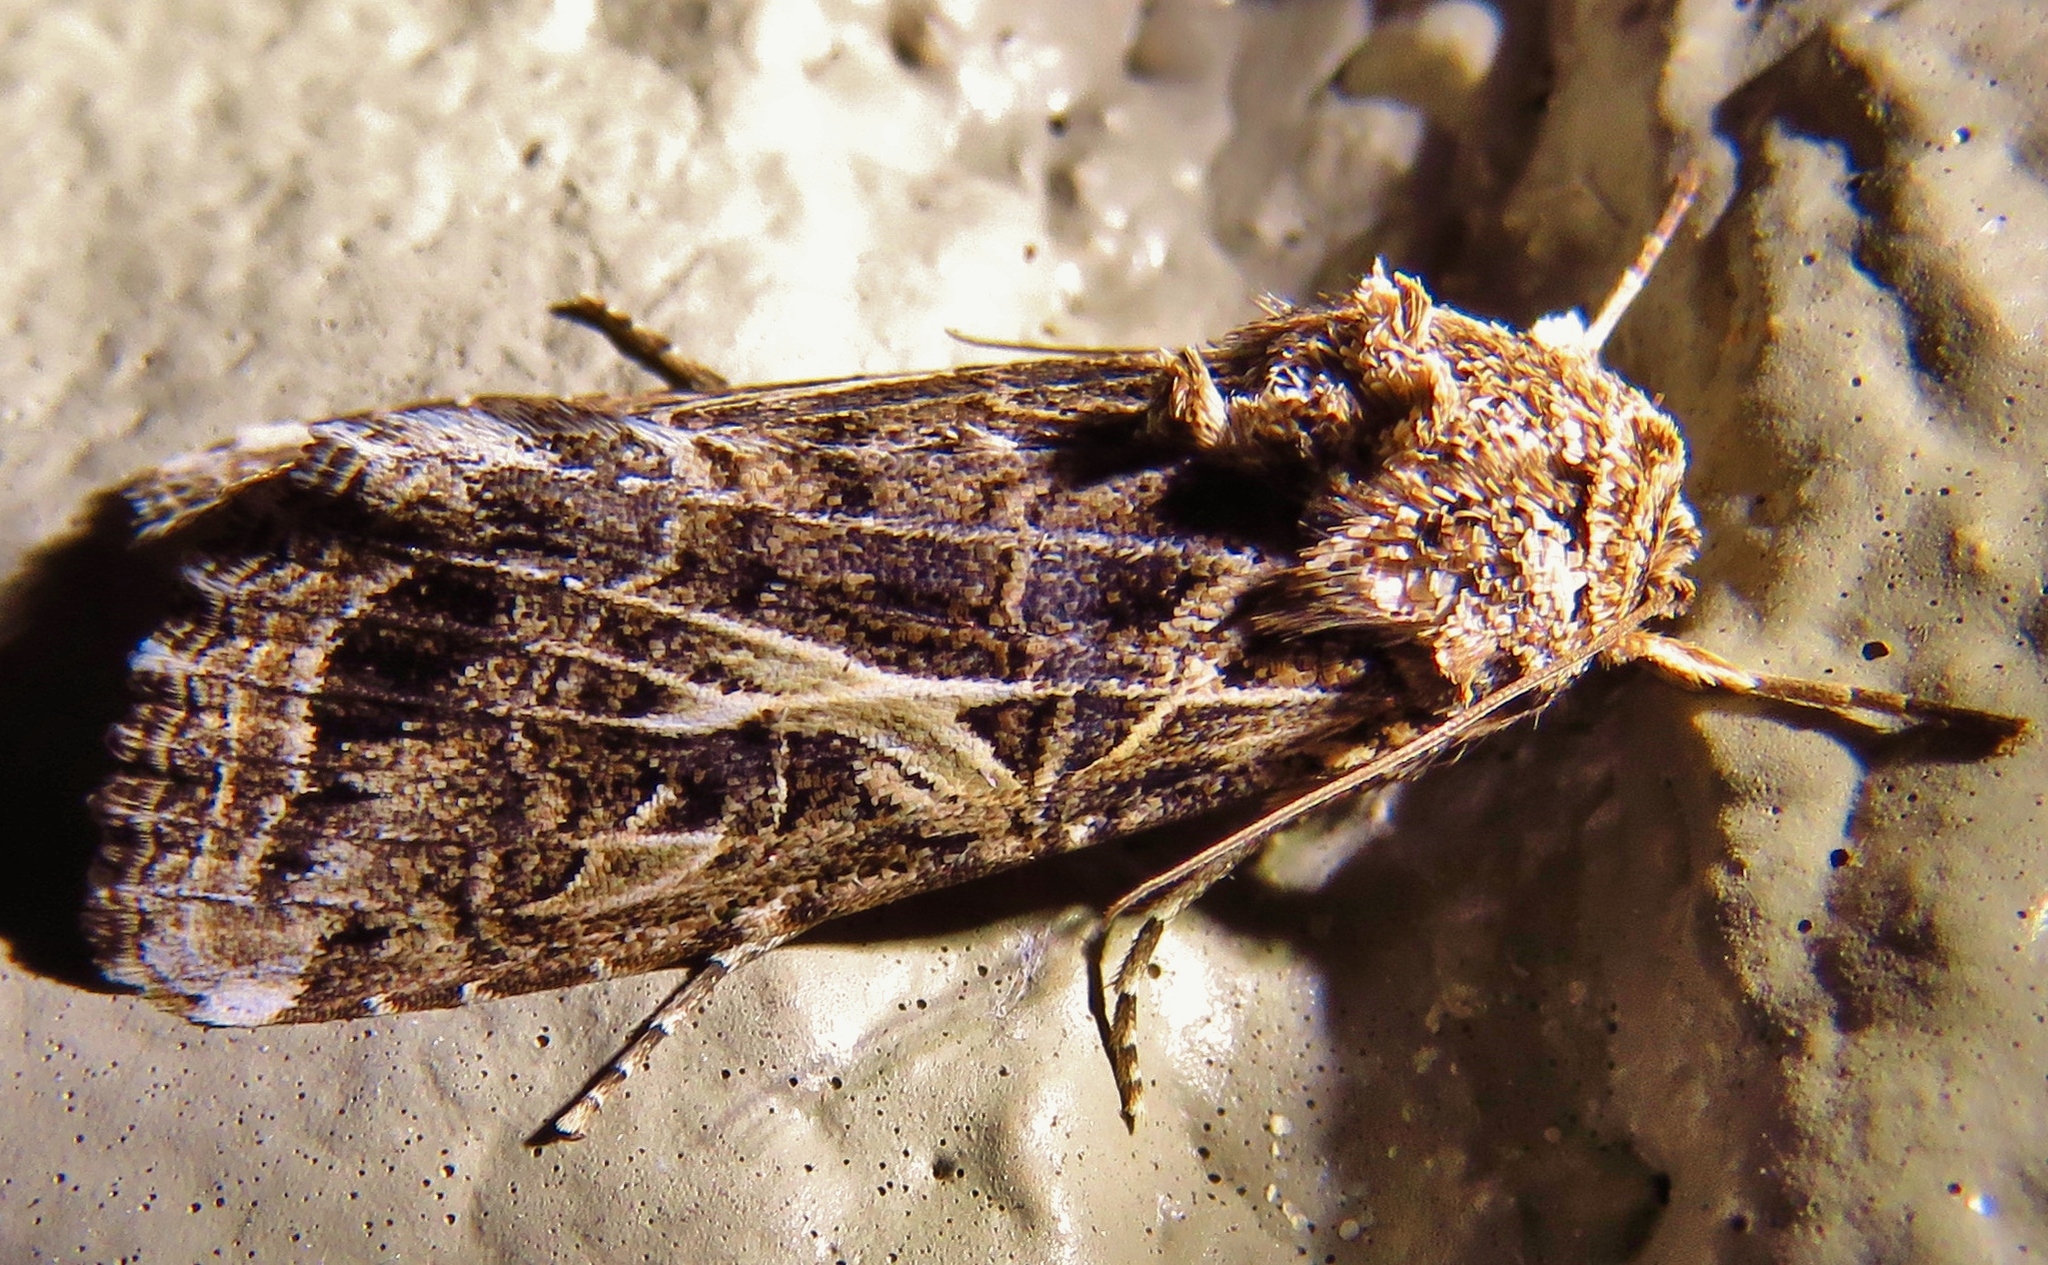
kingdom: Animalia
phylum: Arthropoda
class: Insecta
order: Lepidoptera
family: Noctuidae
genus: Spodoptera
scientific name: Spodoptera ornithogalli
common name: Yellow-striped armyworm
